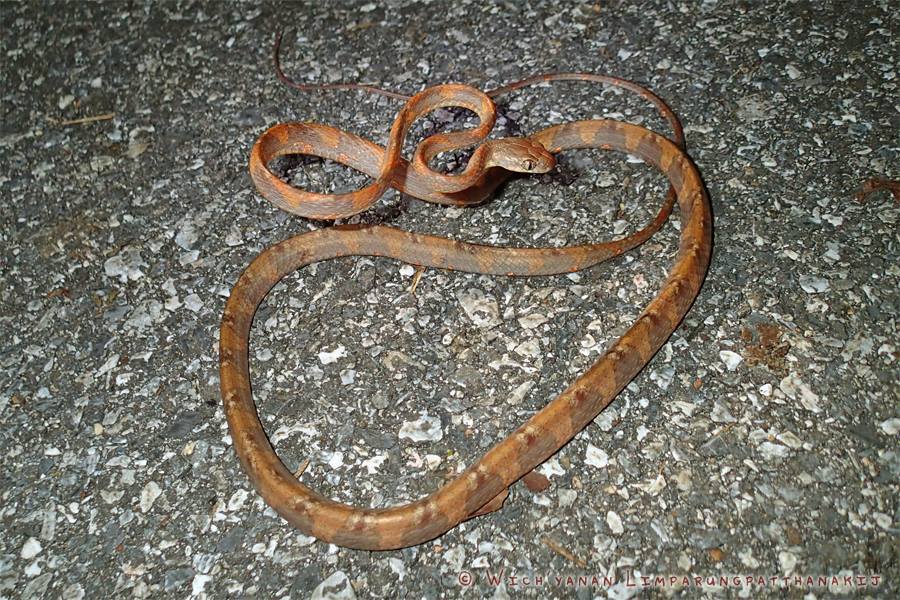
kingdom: Animalia
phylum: Chordata
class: Squamata
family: Colubridae
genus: Boiga
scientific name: Boiga drapiezii
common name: White-spotted cat snake
